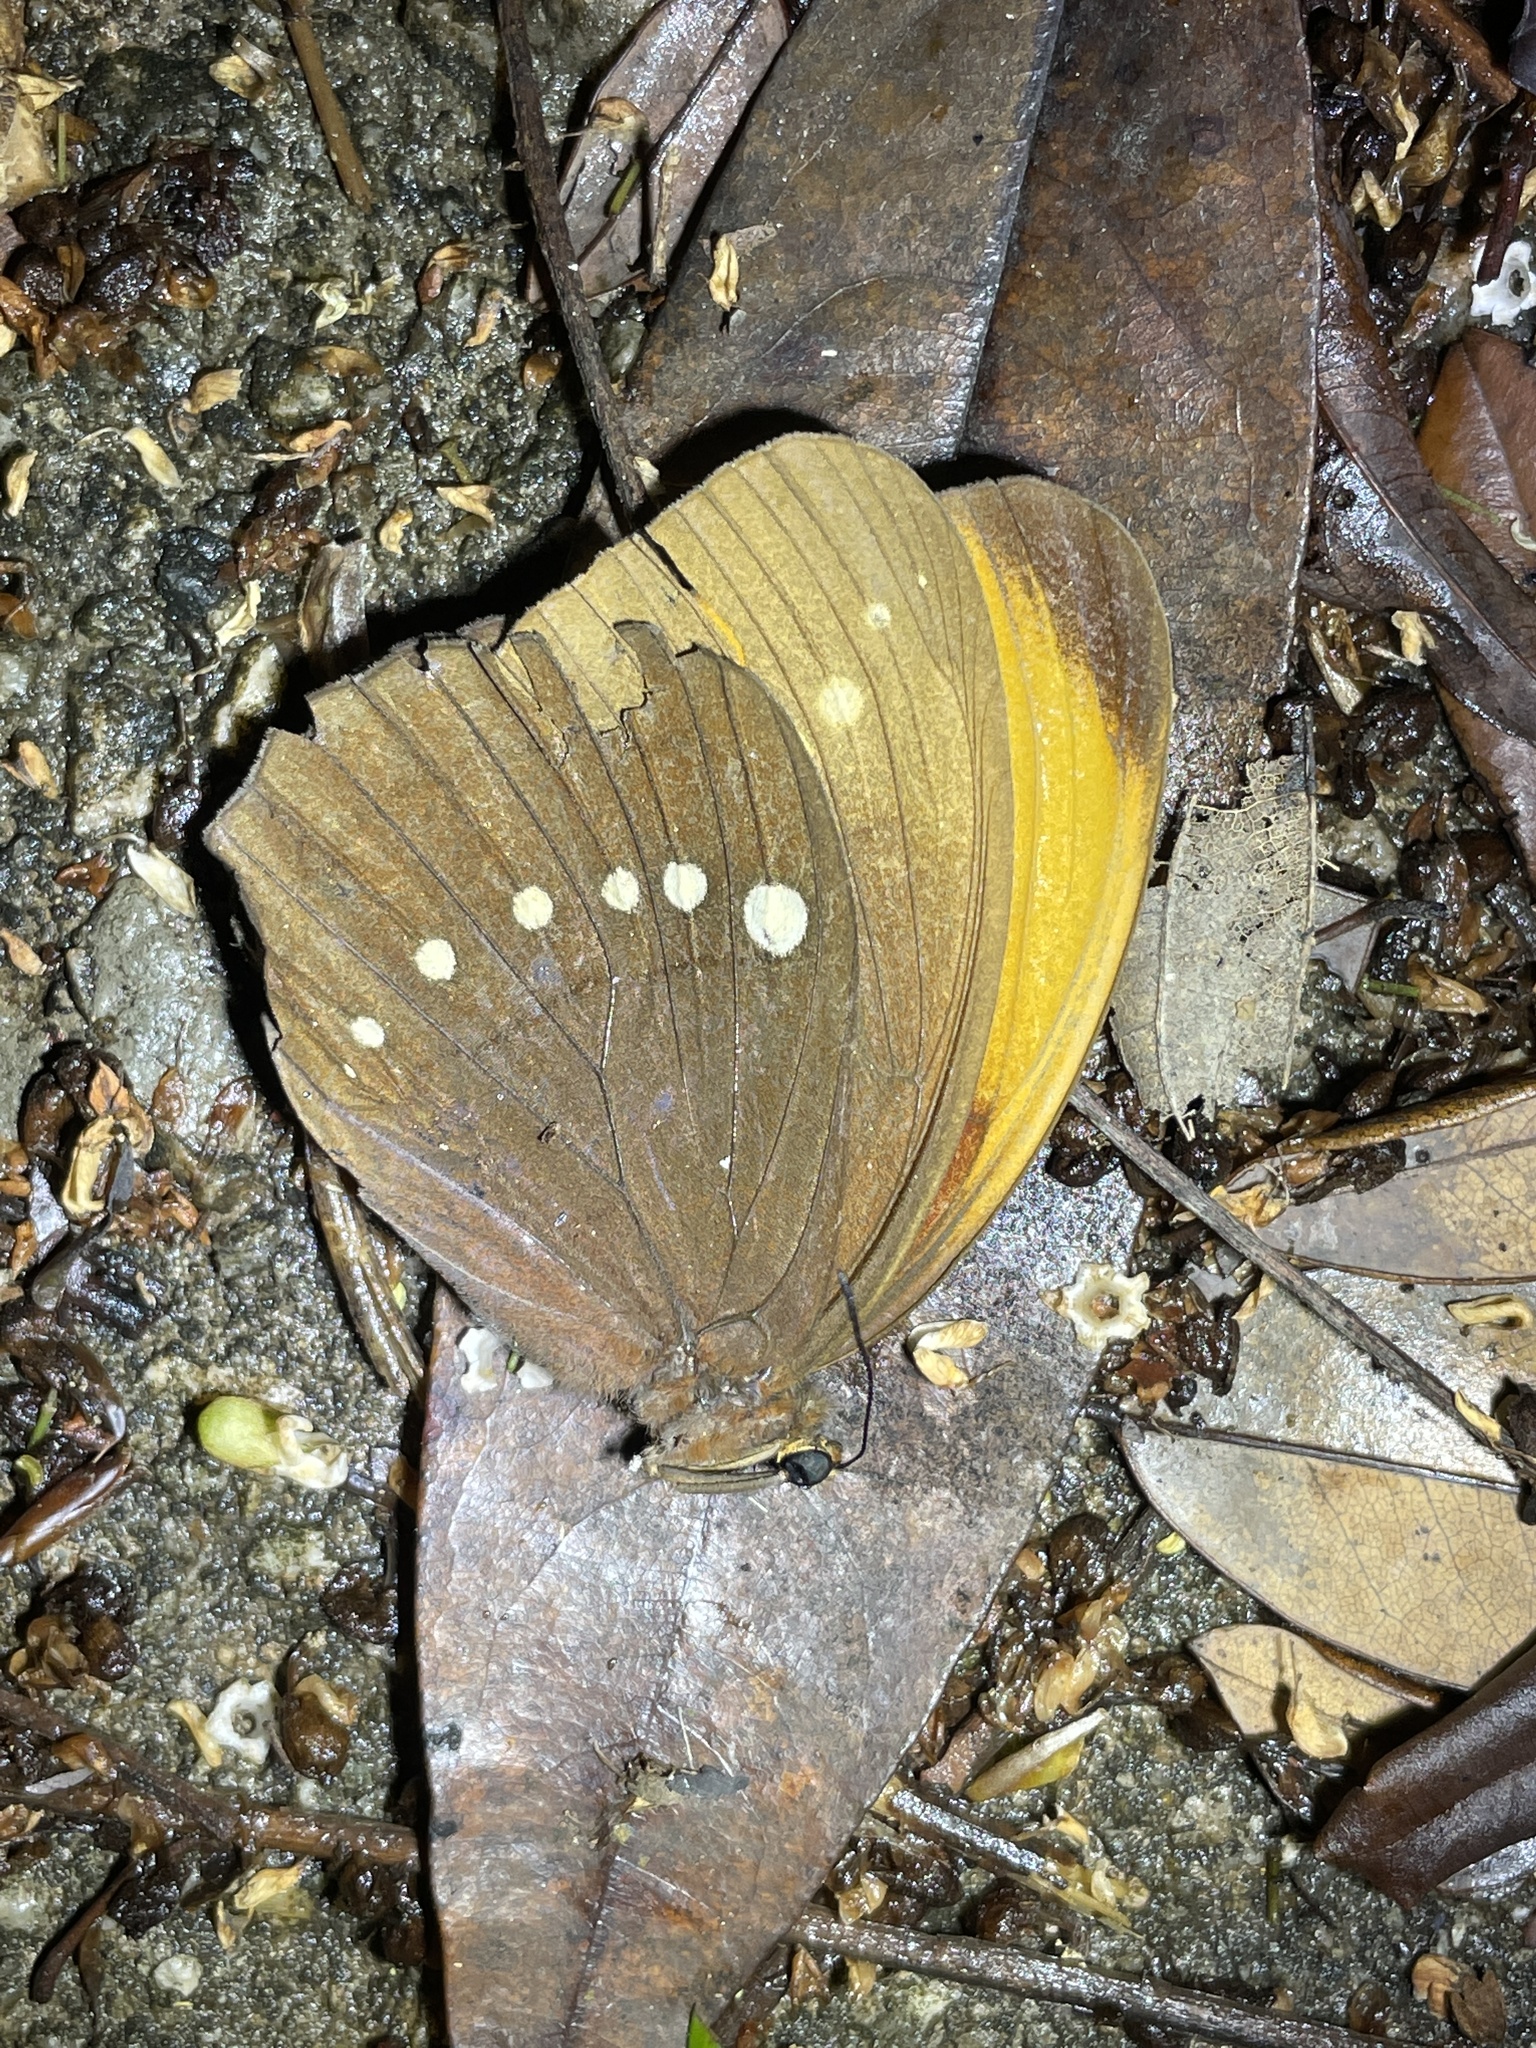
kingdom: Animalia
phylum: Arthropoda
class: Insecta
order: Lepidoptera
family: Nymphalidae
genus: Faunis
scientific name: Faunis eumeus
